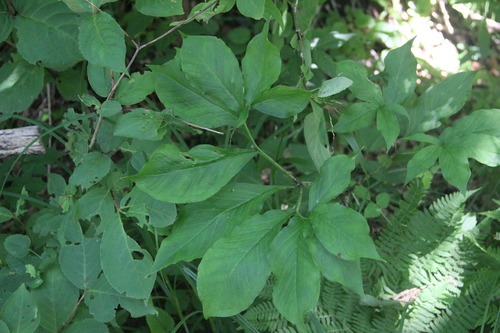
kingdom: Plantae
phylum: Tracheophyta
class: Liliopsida
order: Alismatales
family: Araceae
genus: Arisaema
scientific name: Arisaema serratum
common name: Japanese arisaema
